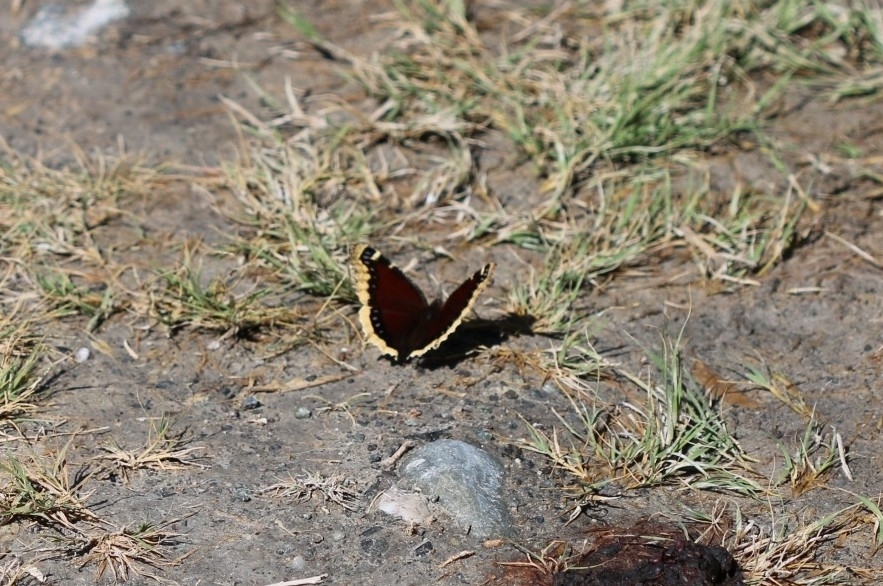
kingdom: Animalia
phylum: Arthropoda
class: Insecta
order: Lepidoptera
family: Nymphalidae
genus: Nymphalis
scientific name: Nymphalis antiopa
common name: Camberwell beauty
